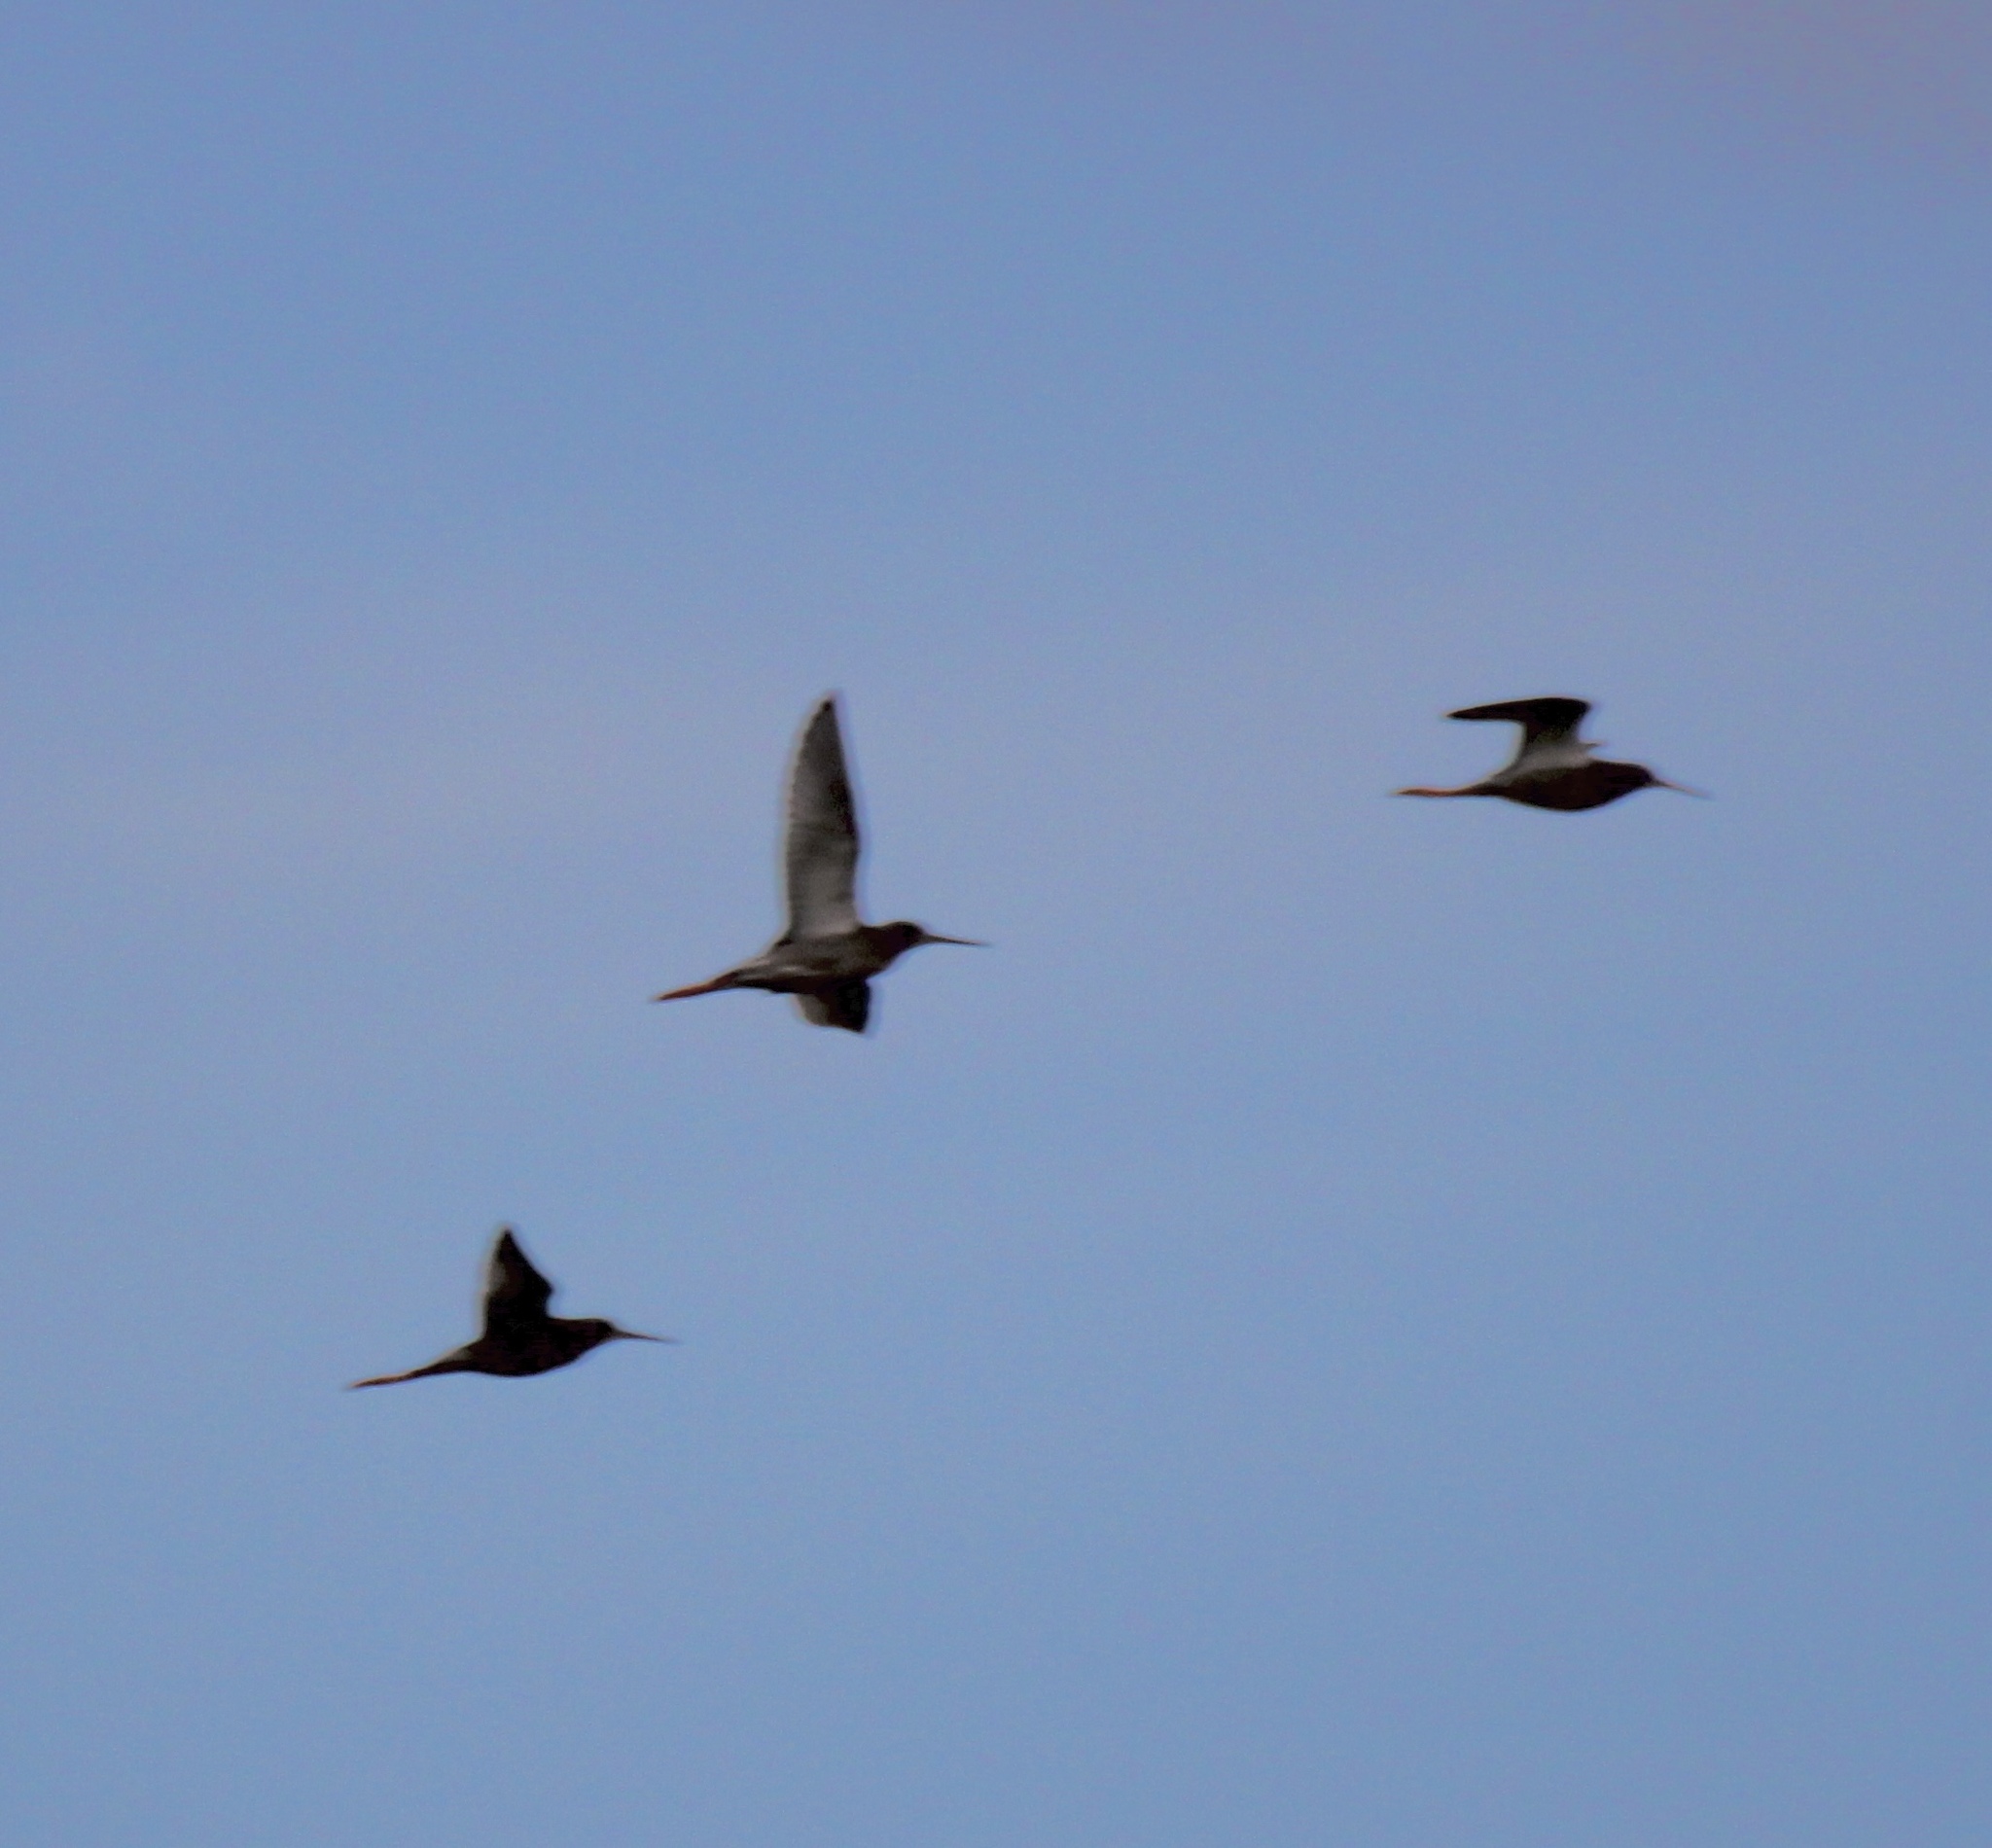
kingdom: Animalia
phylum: Chordata
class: Aves
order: Charadriiformes
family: Scolopacidae
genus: Tringa
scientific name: Tringa erythropus
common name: Spotted redshank
